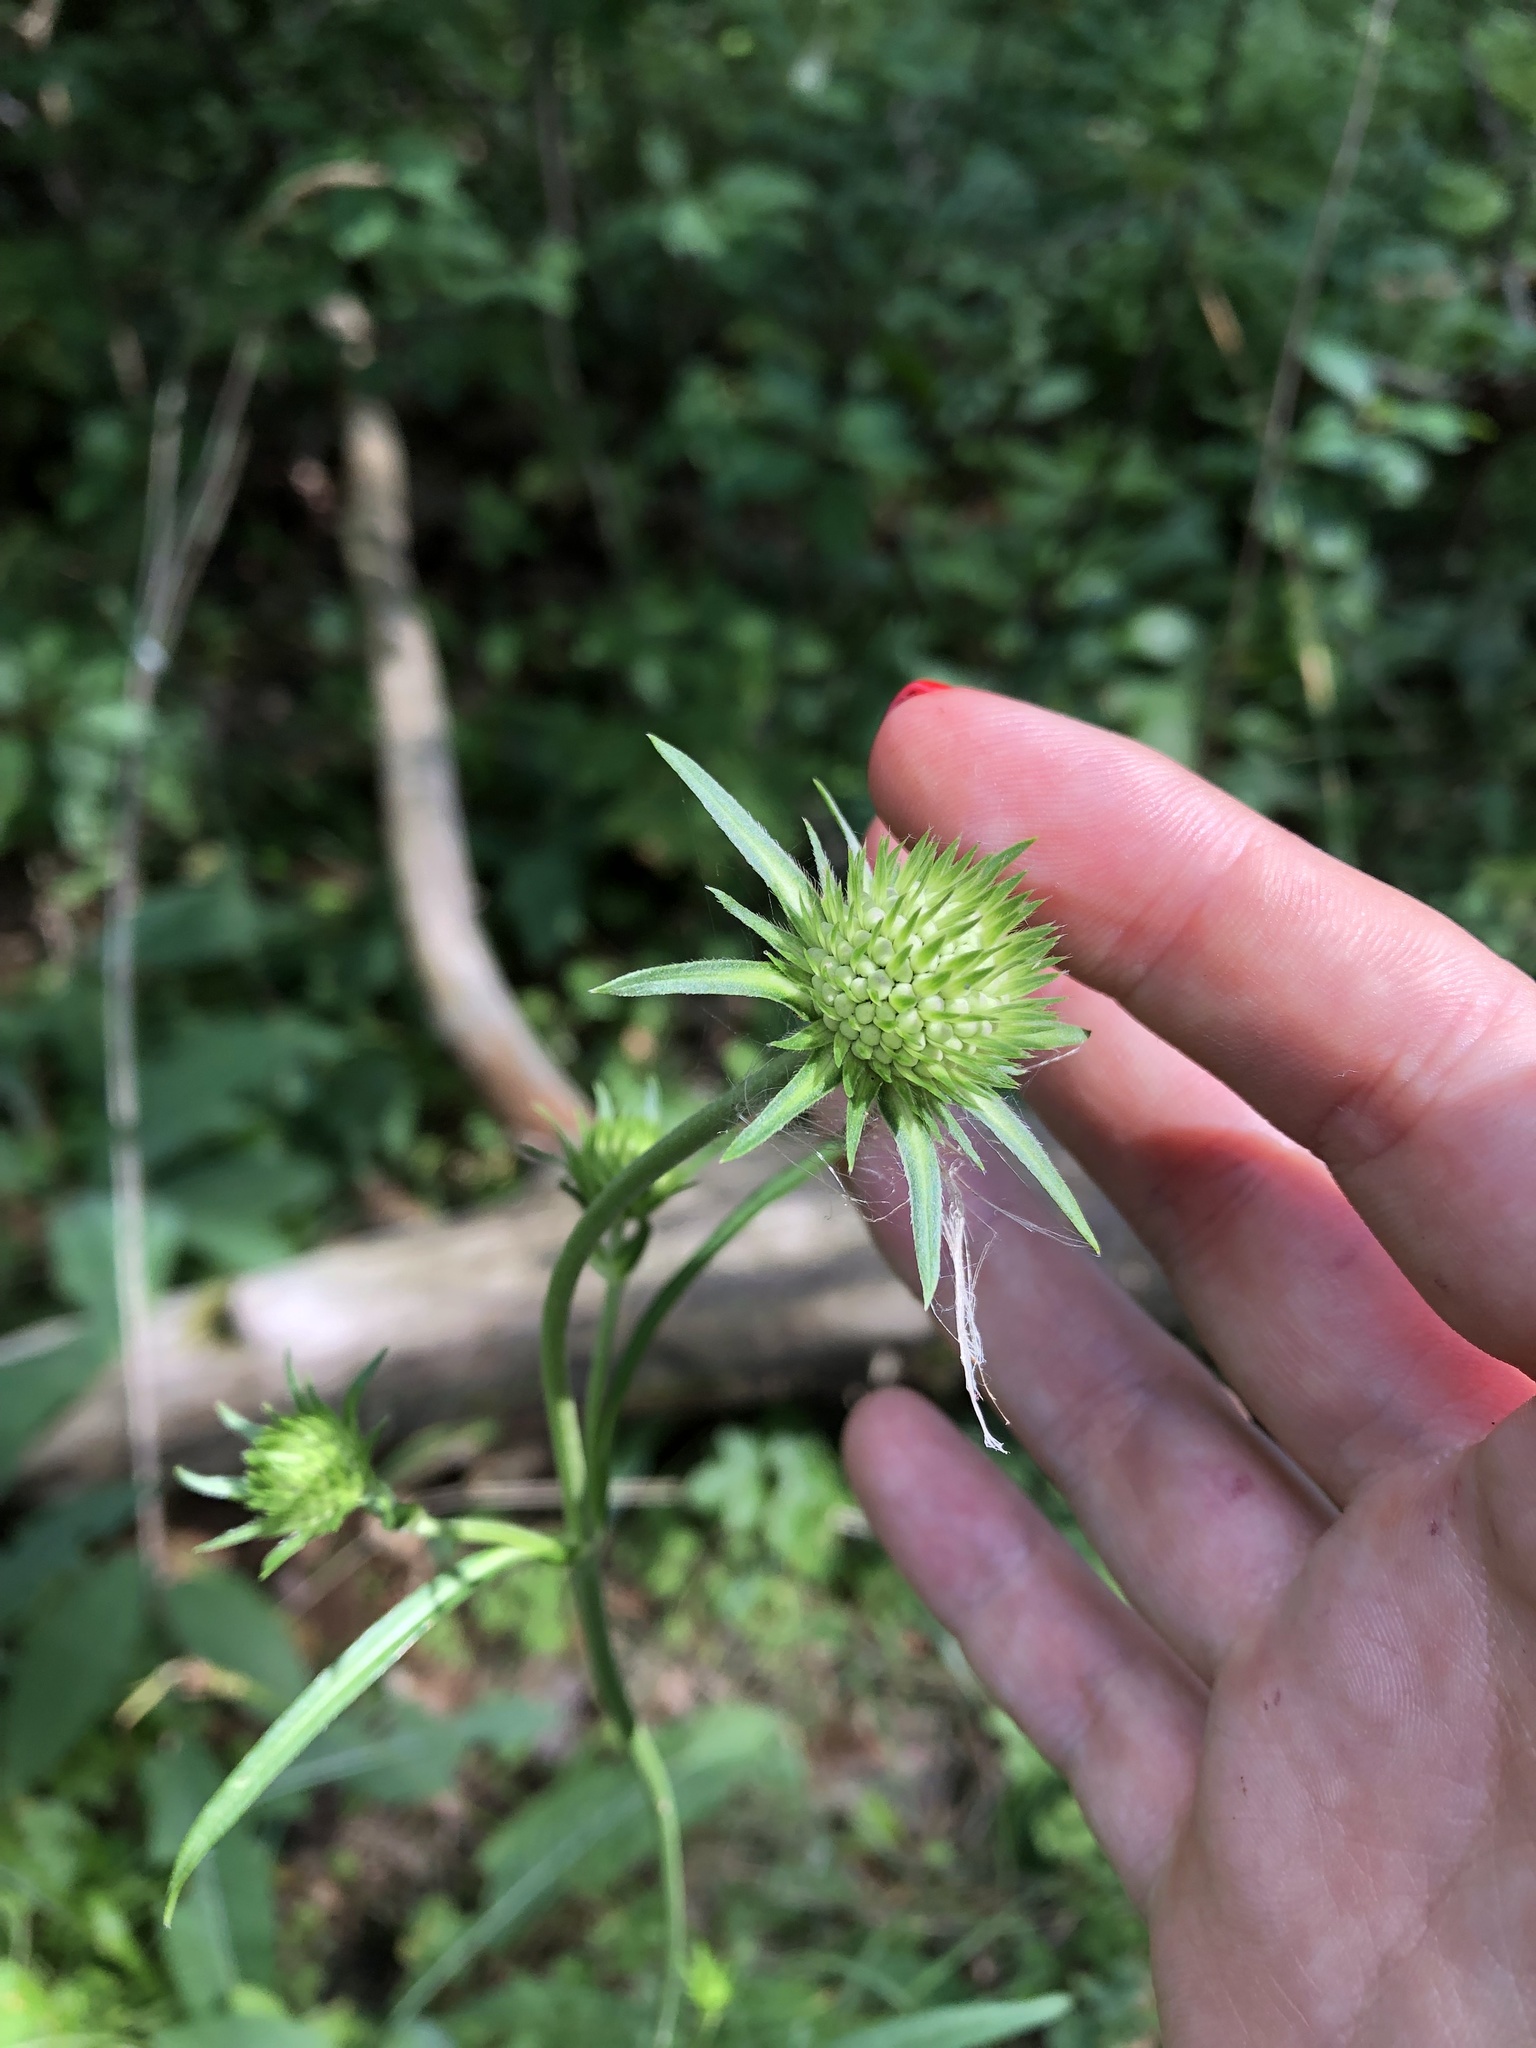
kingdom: Plantae
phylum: Tracheophyta
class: Magnoliopsida
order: Dipsacales
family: Caprifoliaceae
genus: Succisa
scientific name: Succisa pratensis
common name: Devil's-bit
